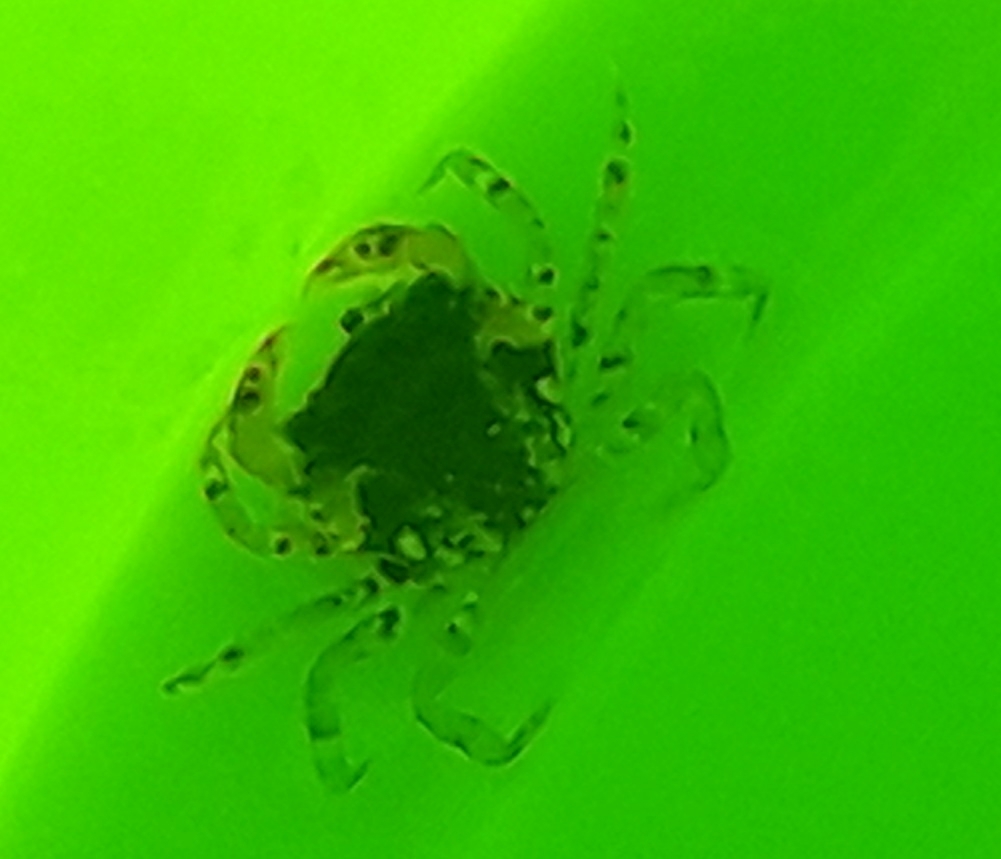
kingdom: Animalia
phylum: Arthropoda
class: Malacostraca
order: Decapoda
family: Carcinidae
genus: Carcinus
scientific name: Carcinus maenas
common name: European green crab
